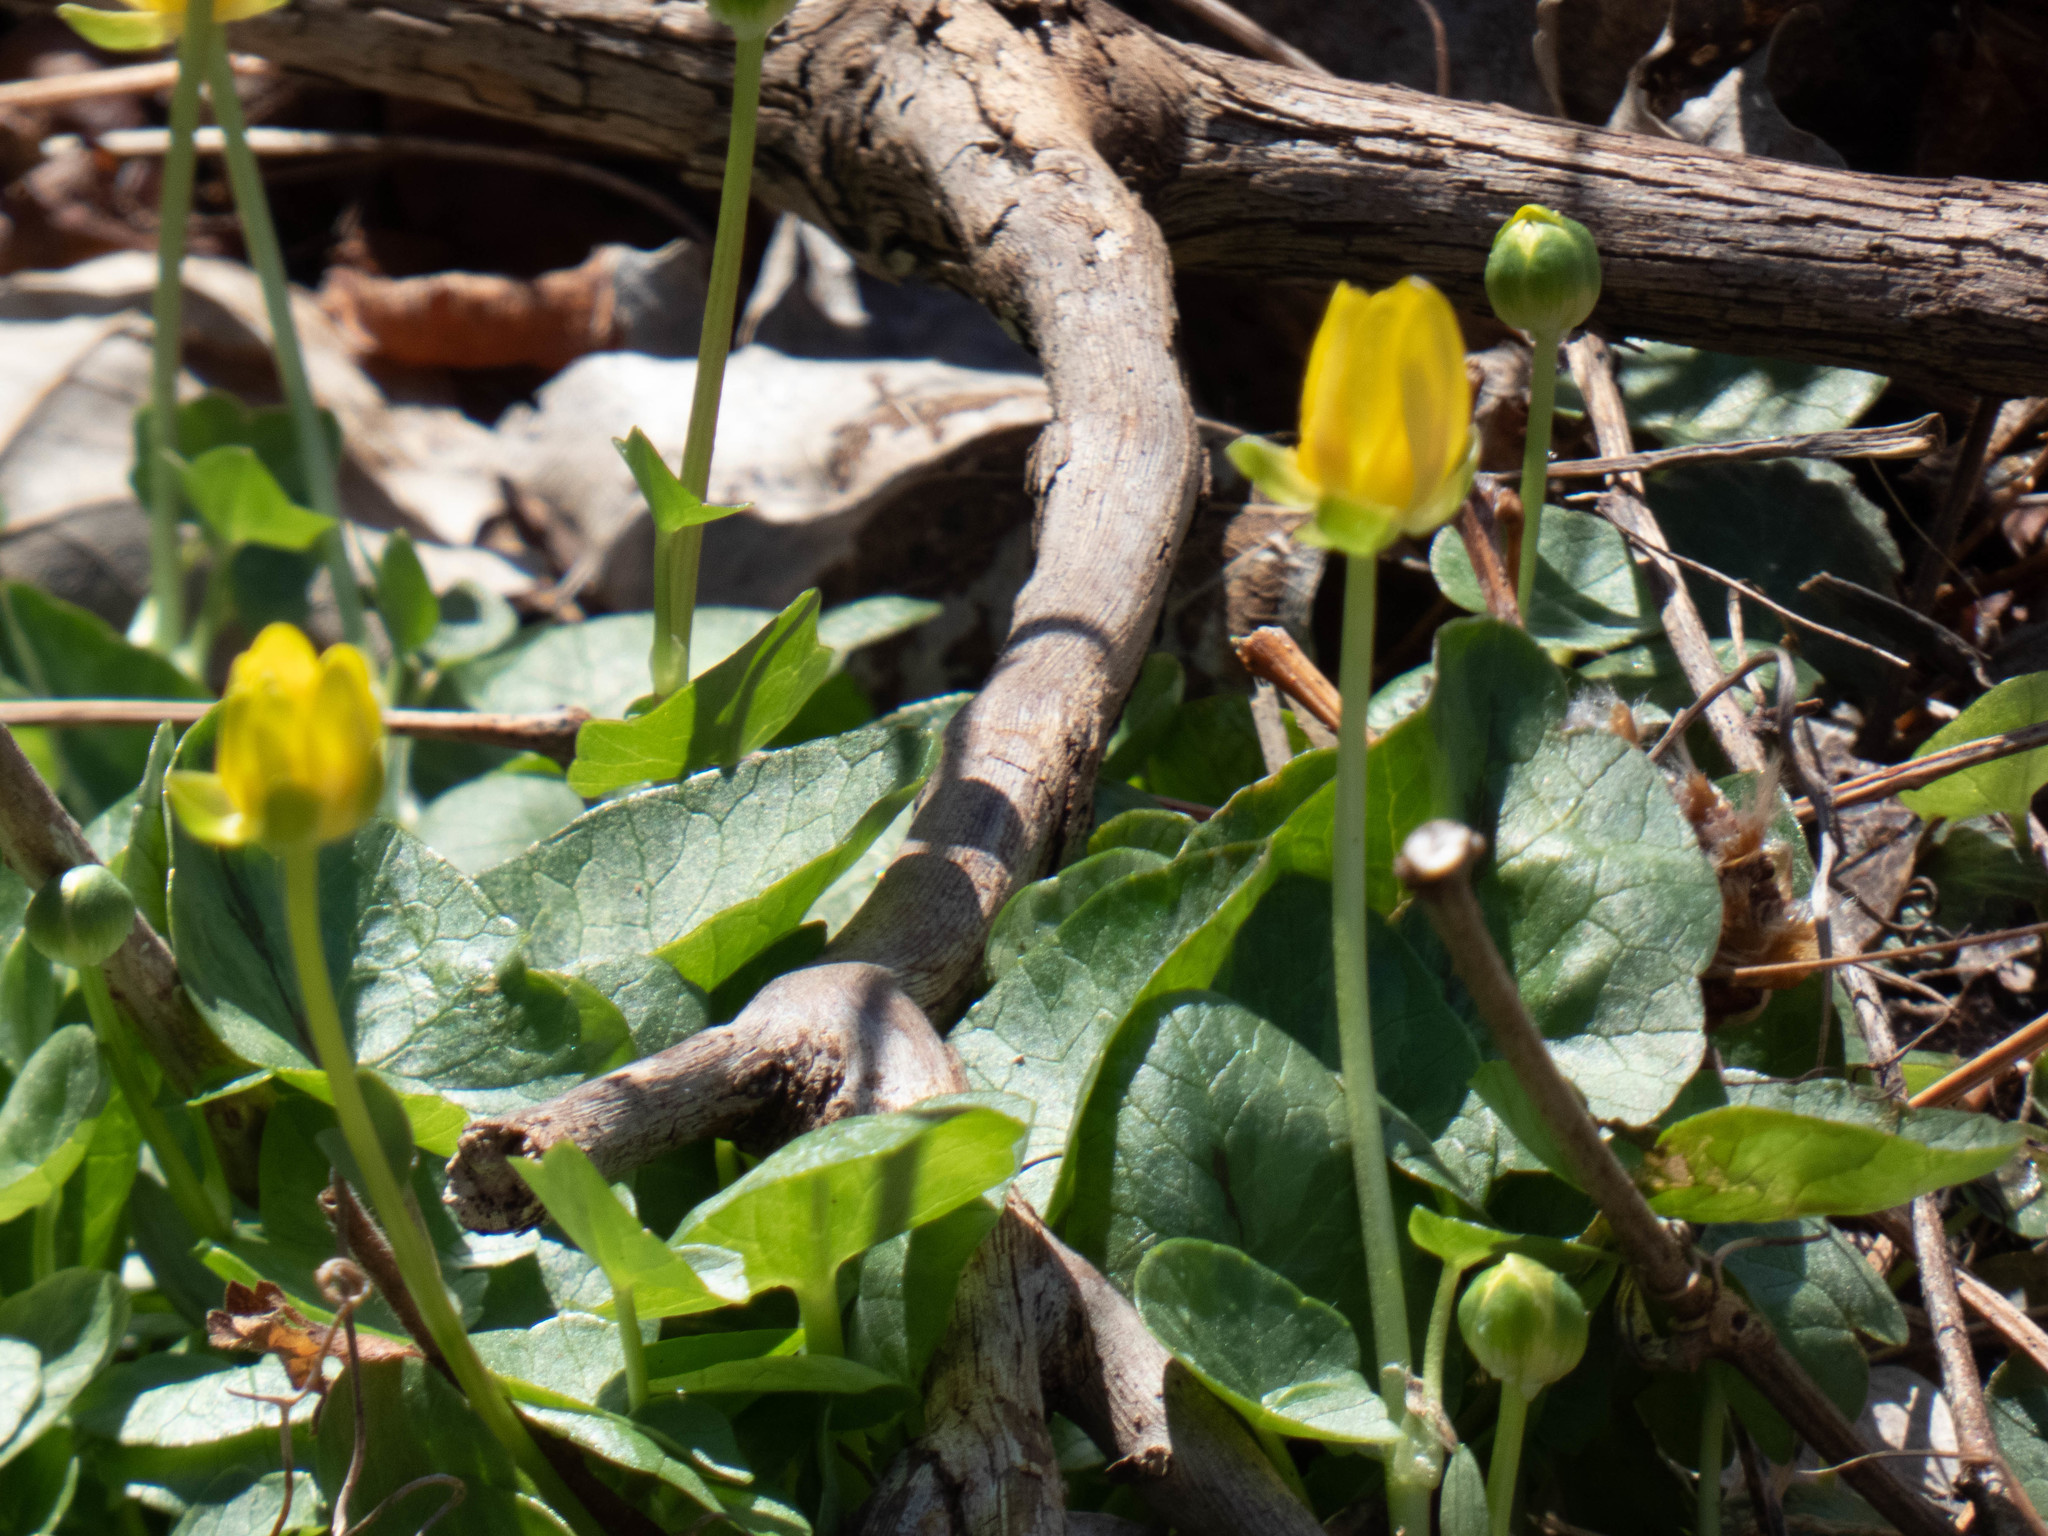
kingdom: Plantae
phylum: Tracheophyta
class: Magnoliopsida
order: Ranunculales
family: Ranunculaceae
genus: Ficaria
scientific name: Ficaria verna
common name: Lesser celandine
